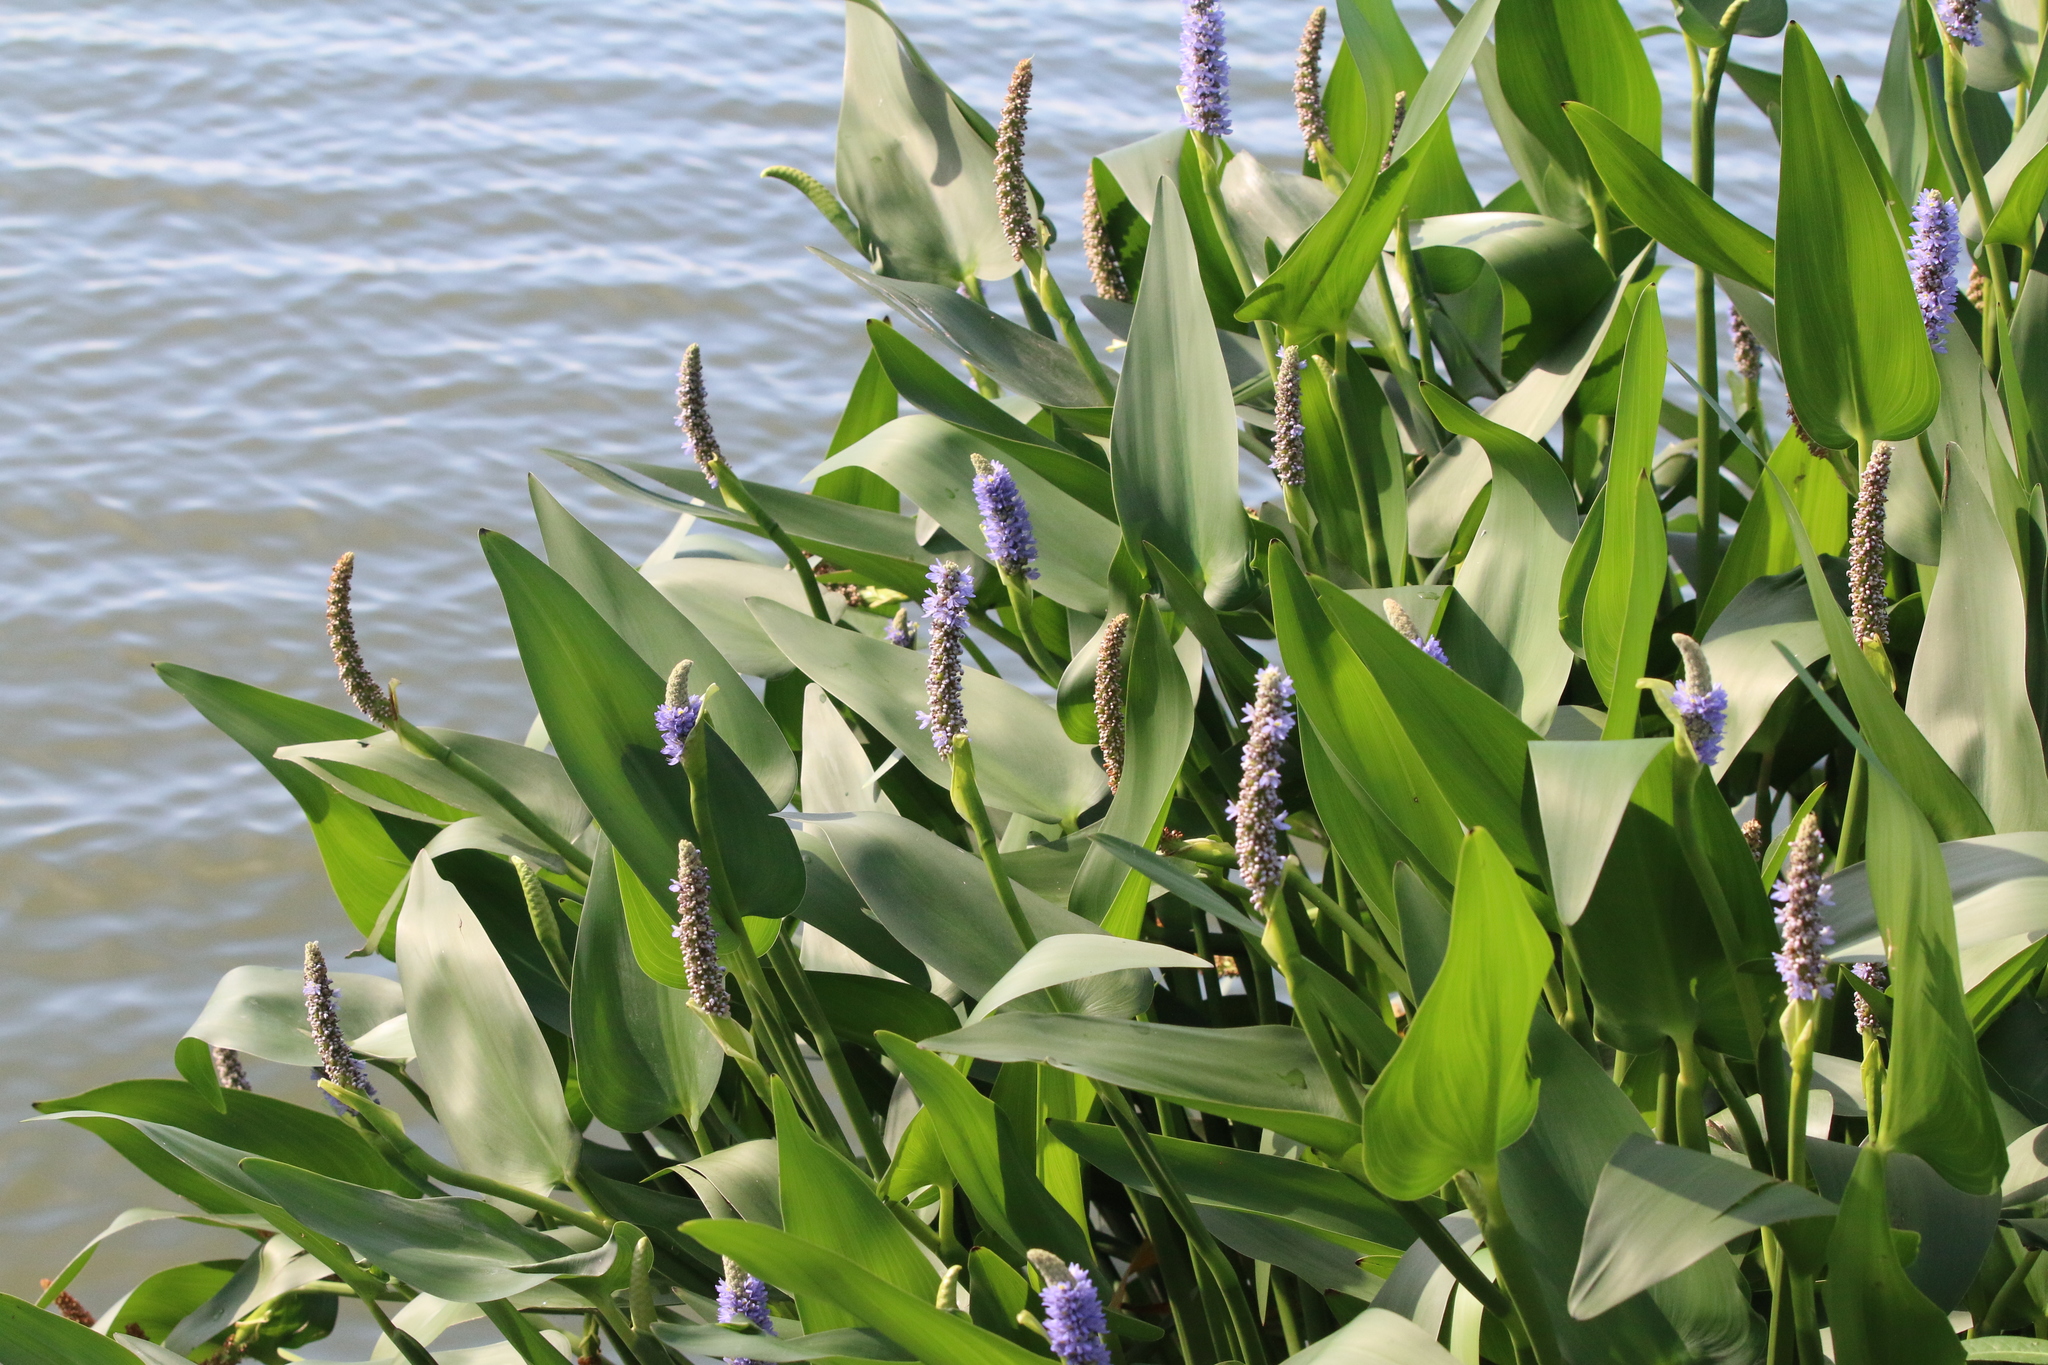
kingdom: Plantae
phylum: Tracheophyta
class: Liliopsida
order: Commelinales
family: Pontederiaceae
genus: Pontederia
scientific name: Pontederia cordata
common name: Pickerelweed
